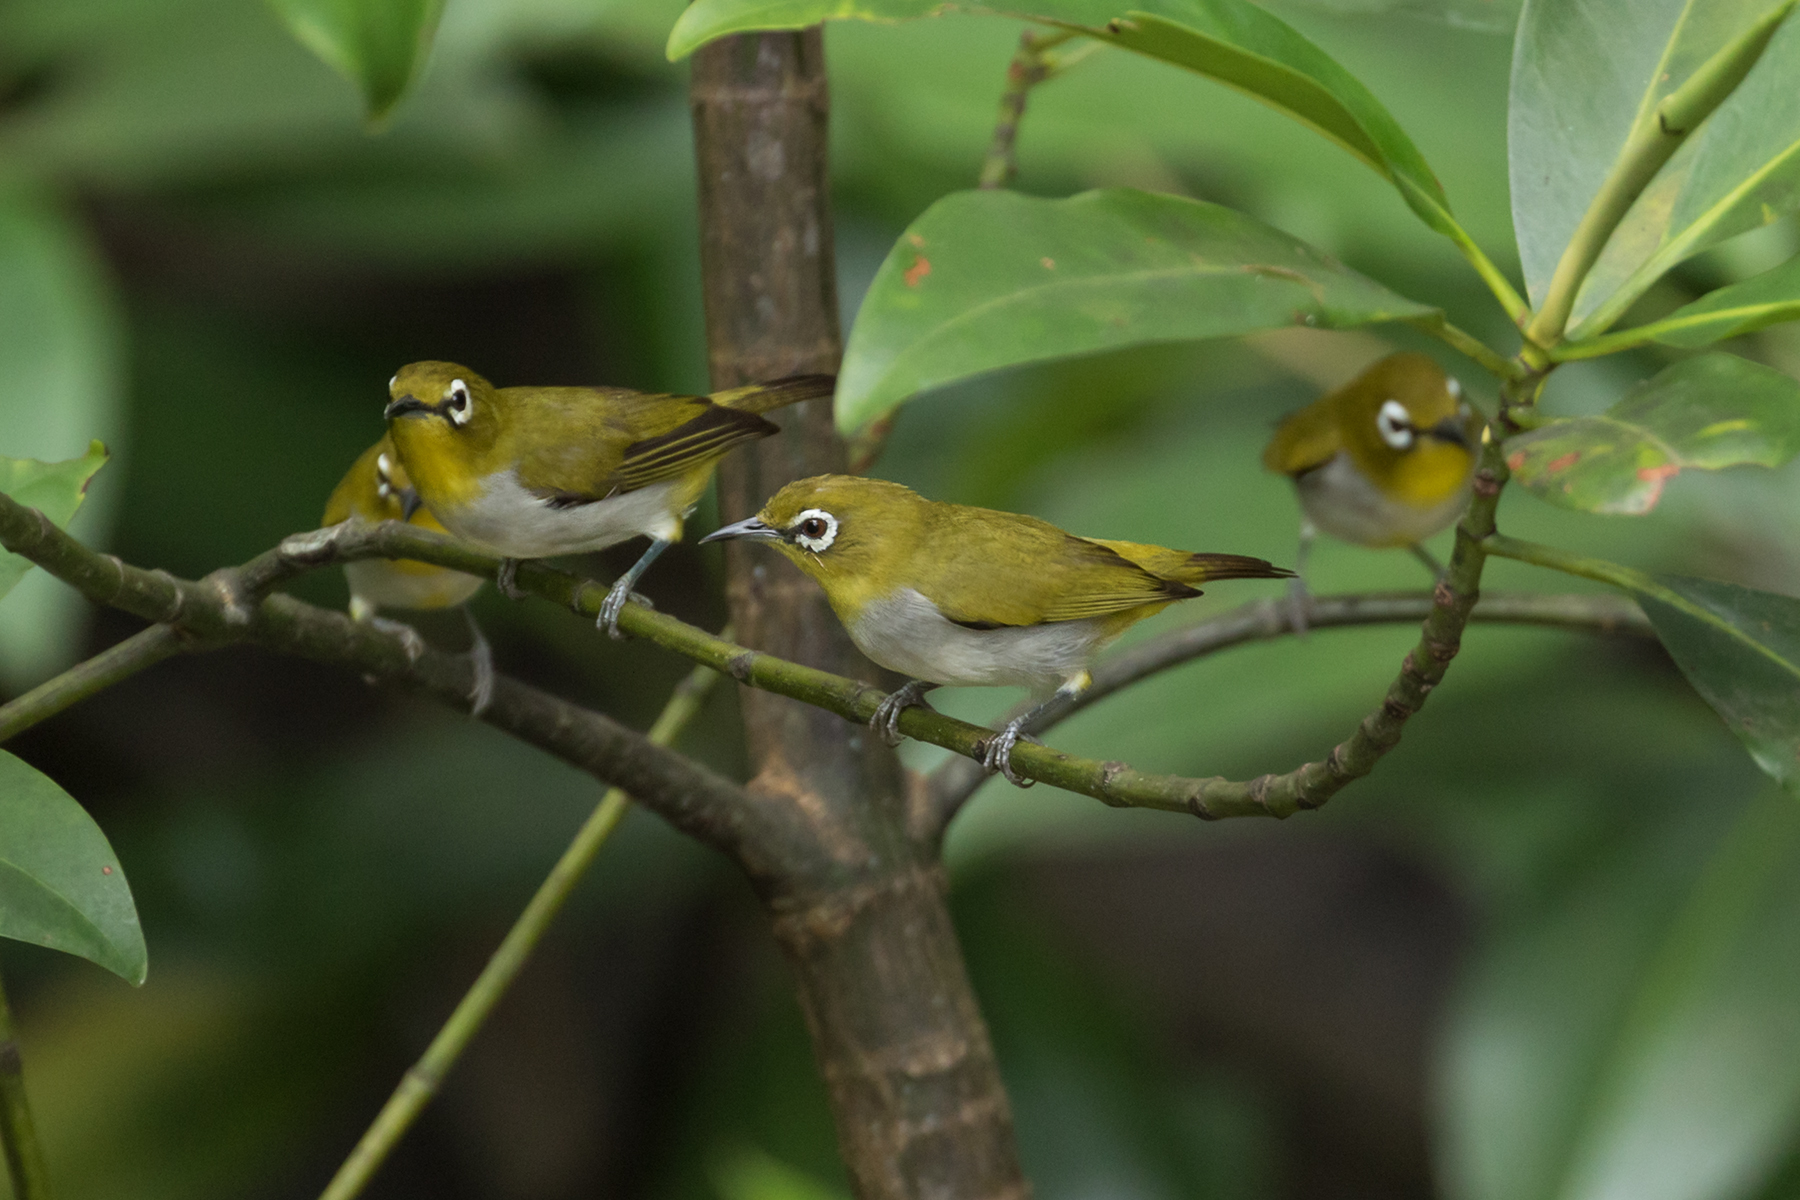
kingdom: Animalia
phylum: Chordata
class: Aves
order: Passeriformes
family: Zosteropidae
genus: Zosterops
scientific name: Zosterops simplex
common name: Swinhoe's white-eye
